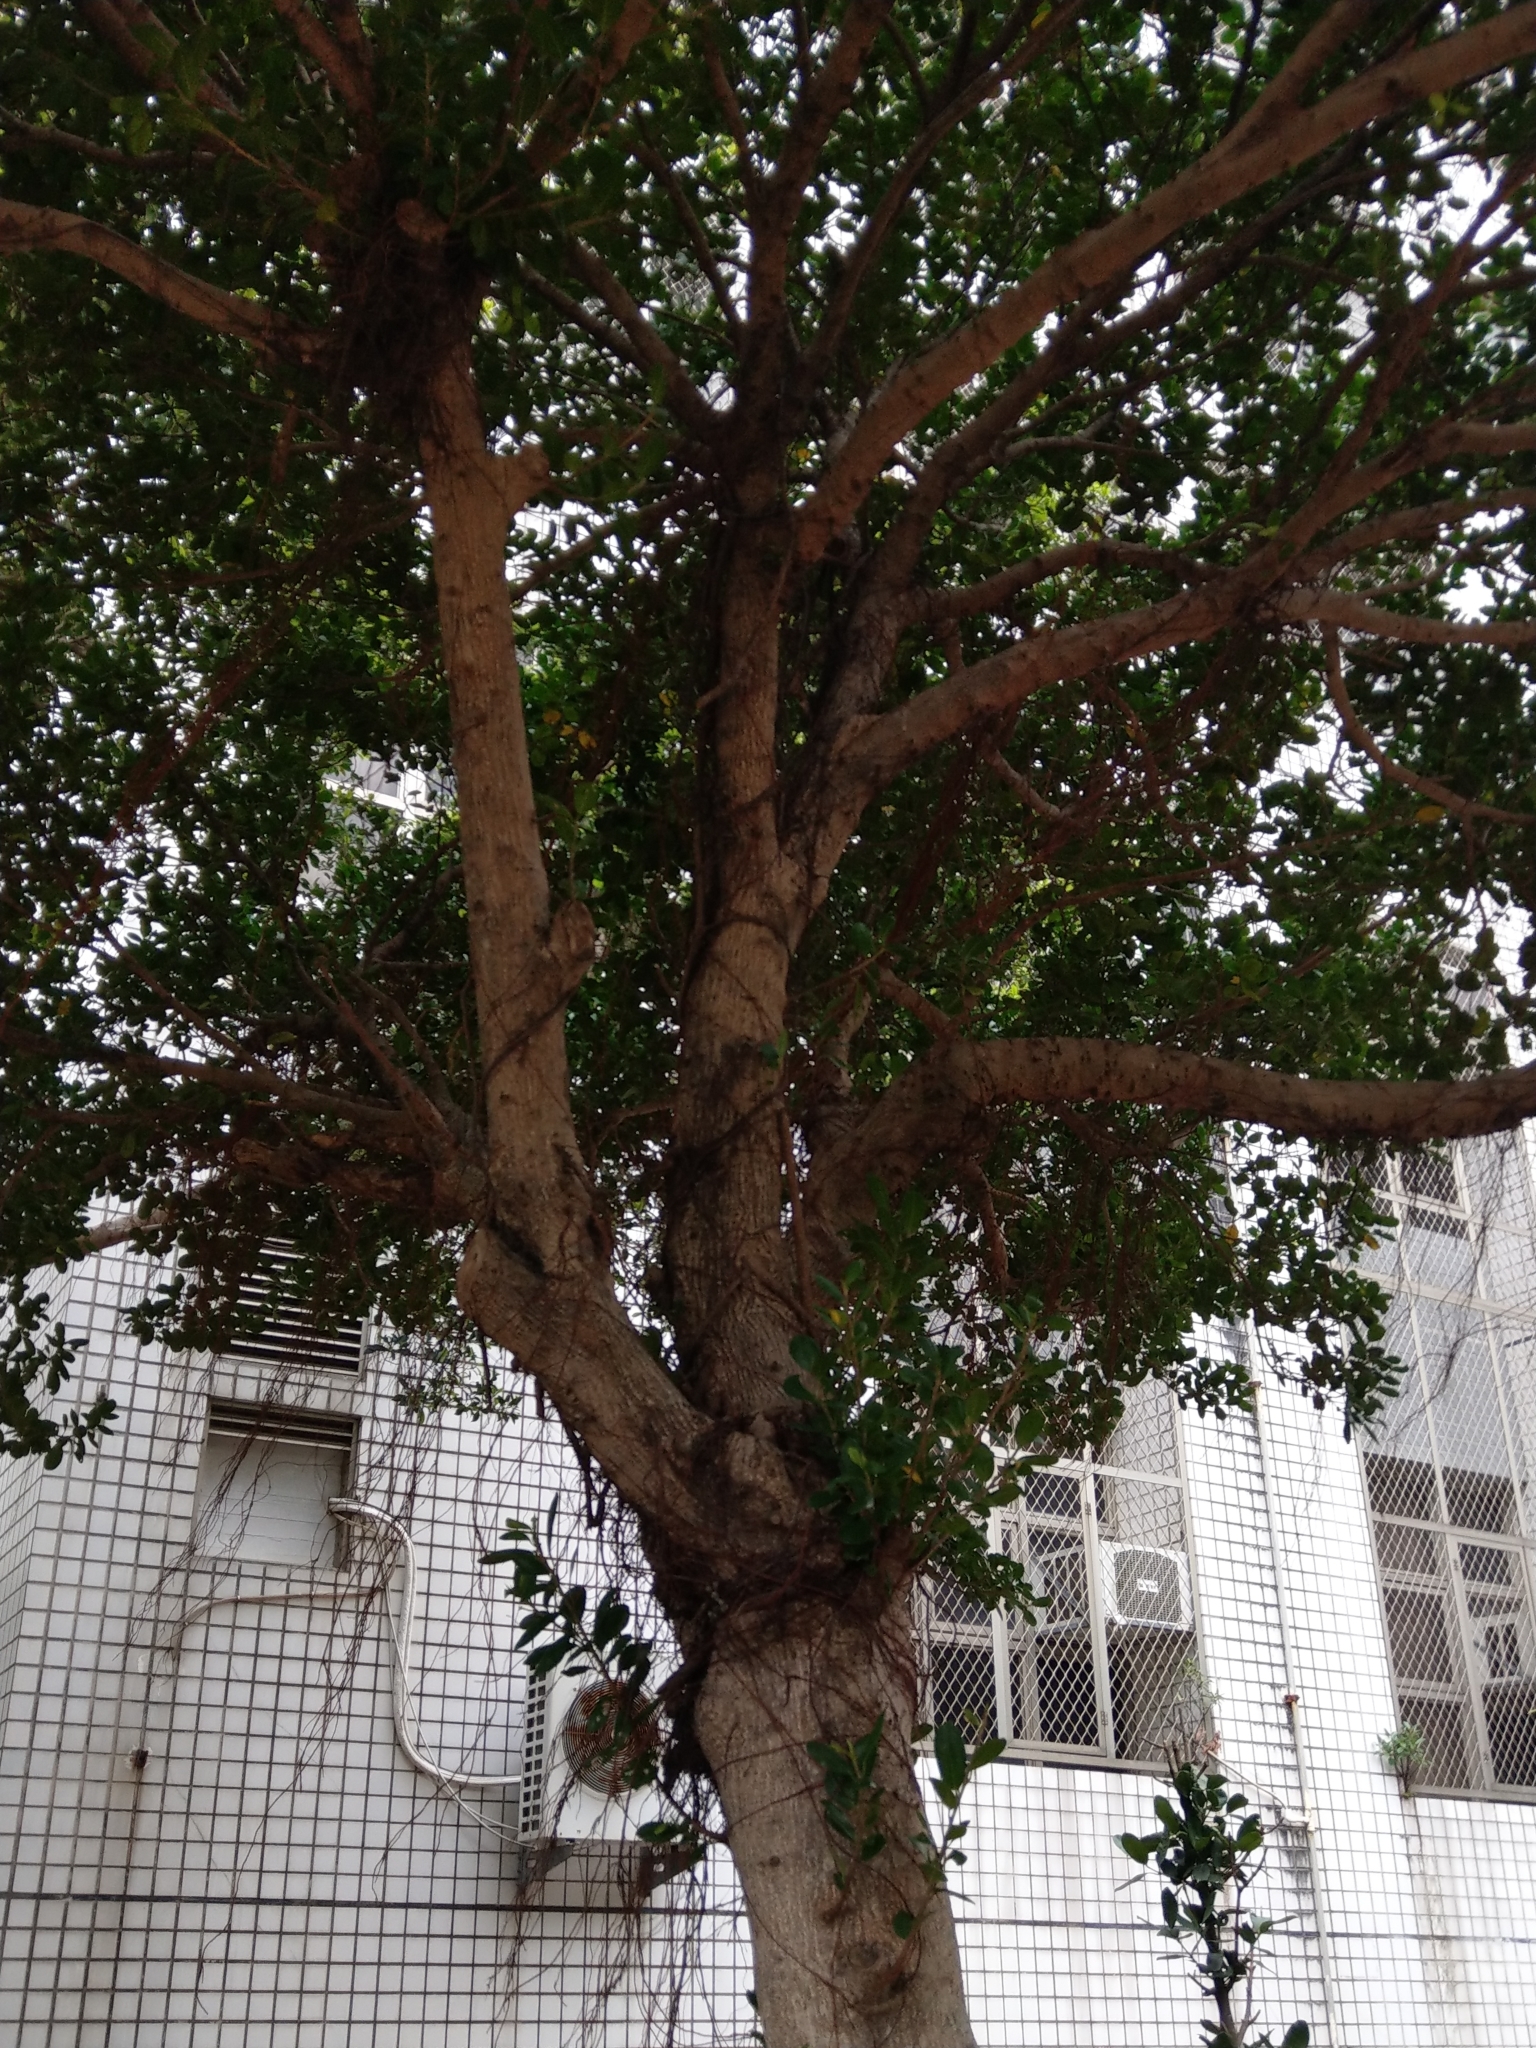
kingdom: Plantae
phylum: Tracheophyta
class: Magnoliopsida
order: Rosales
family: Moraceae
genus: Ficus
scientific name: Ficus microcarpa
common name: Chinese banyan
